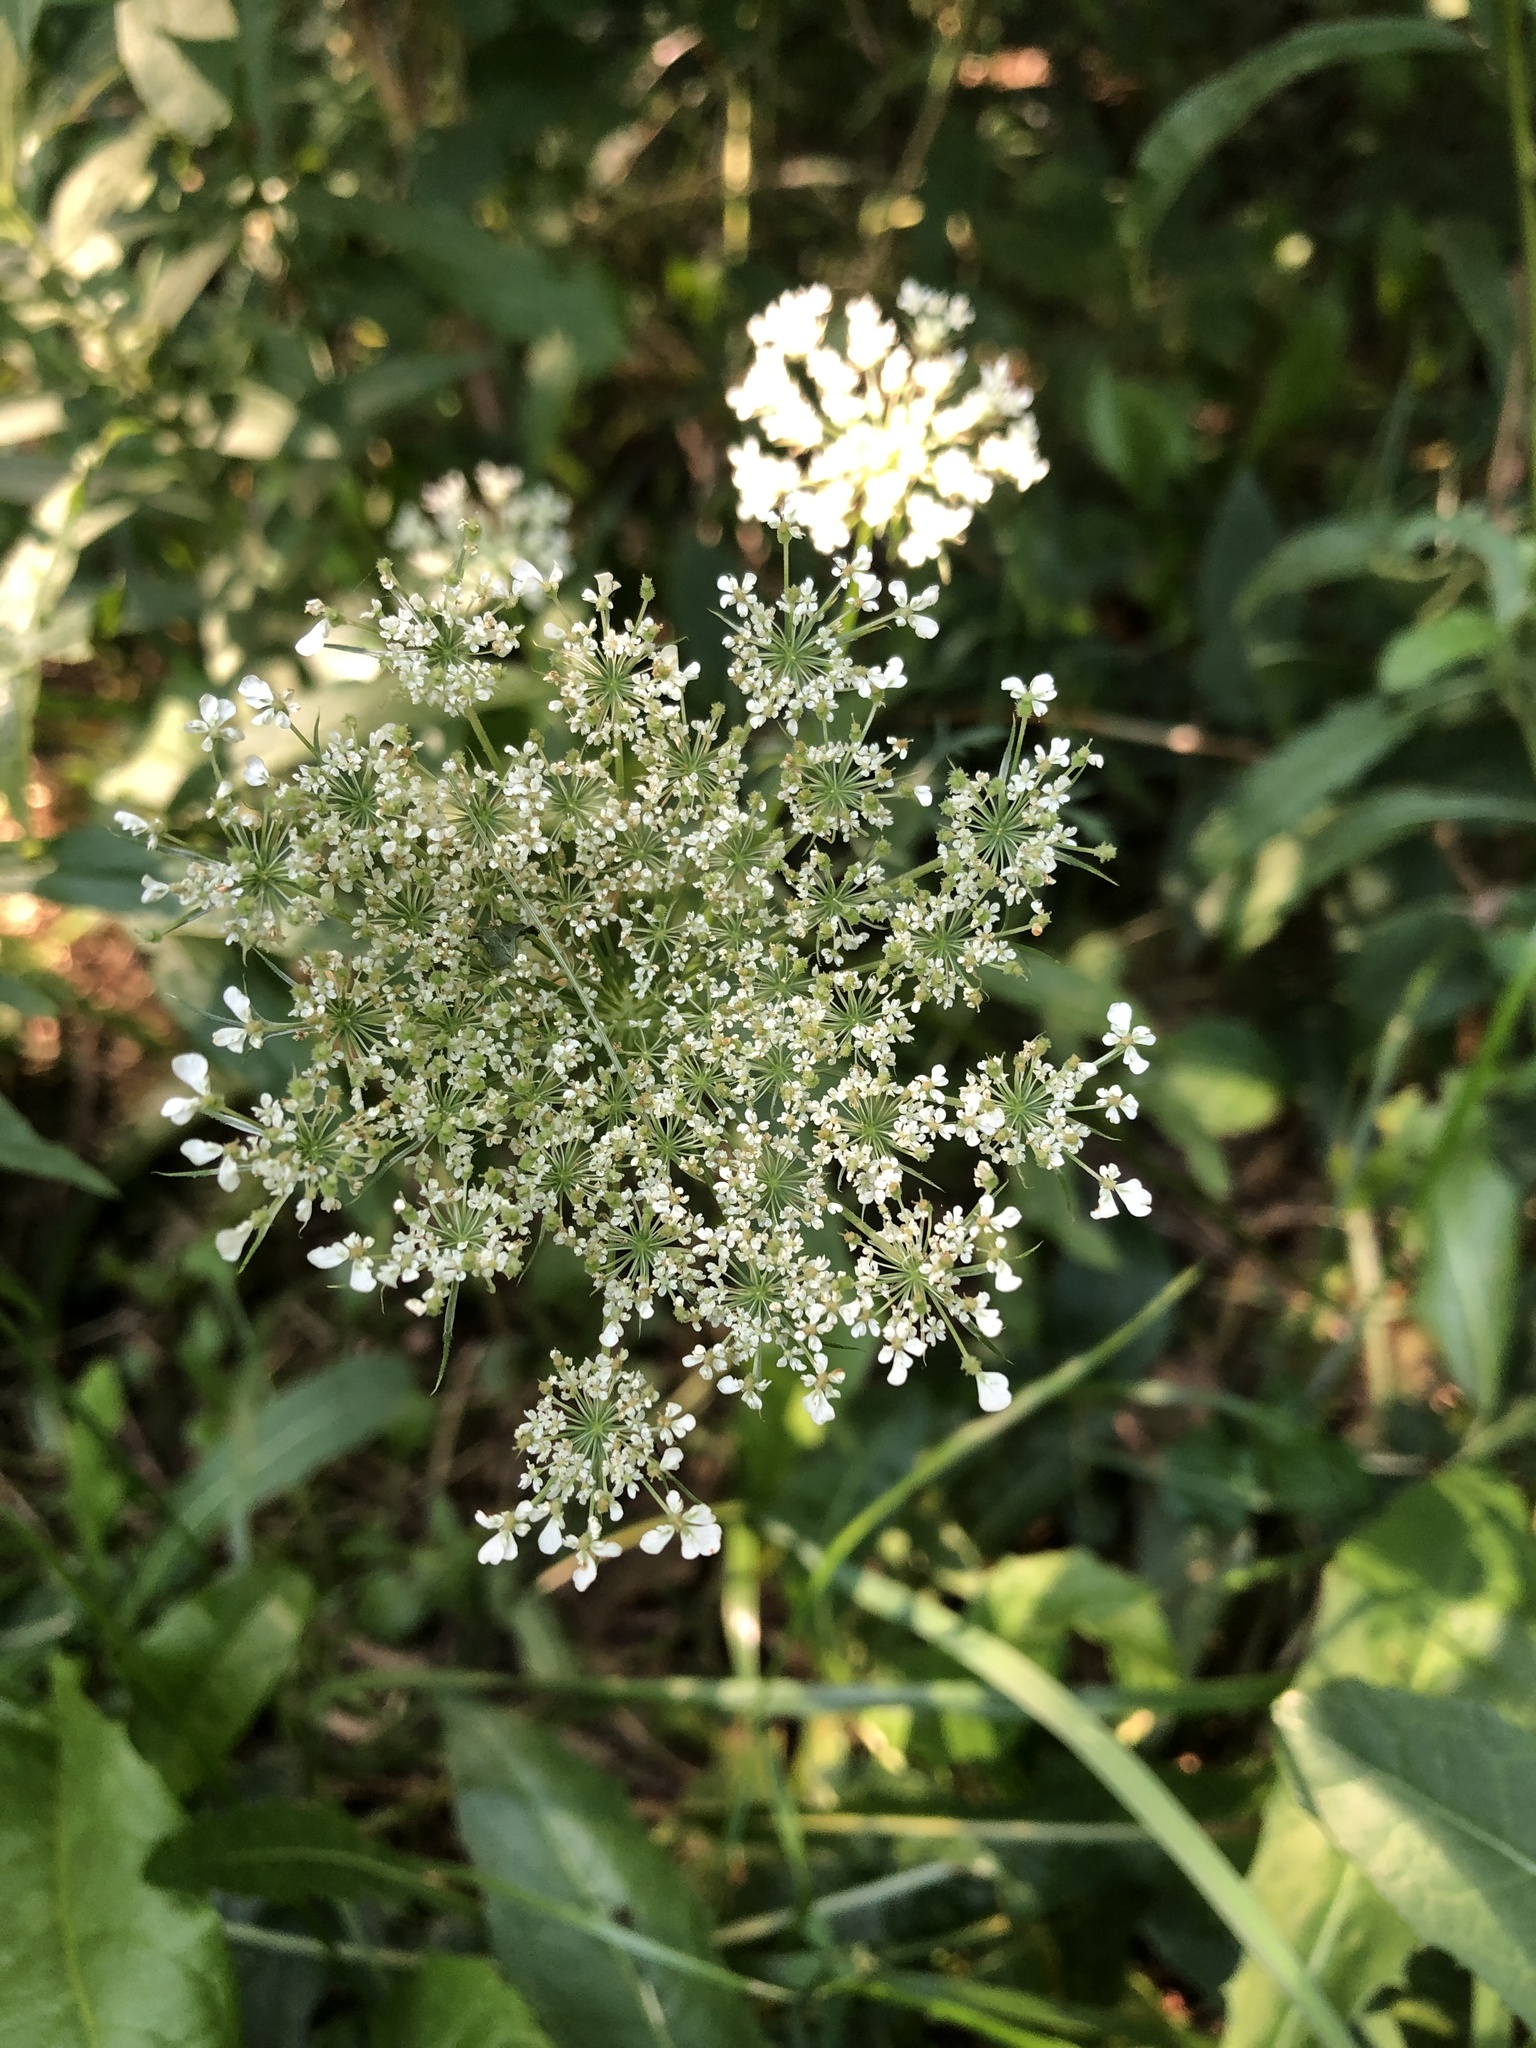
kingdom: Plantae
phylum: Tracheophyta
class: Magnoliopsida
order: Apiales
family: Apiaceae
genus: Daucus
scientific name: Daucus carota
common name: Wild carrot
